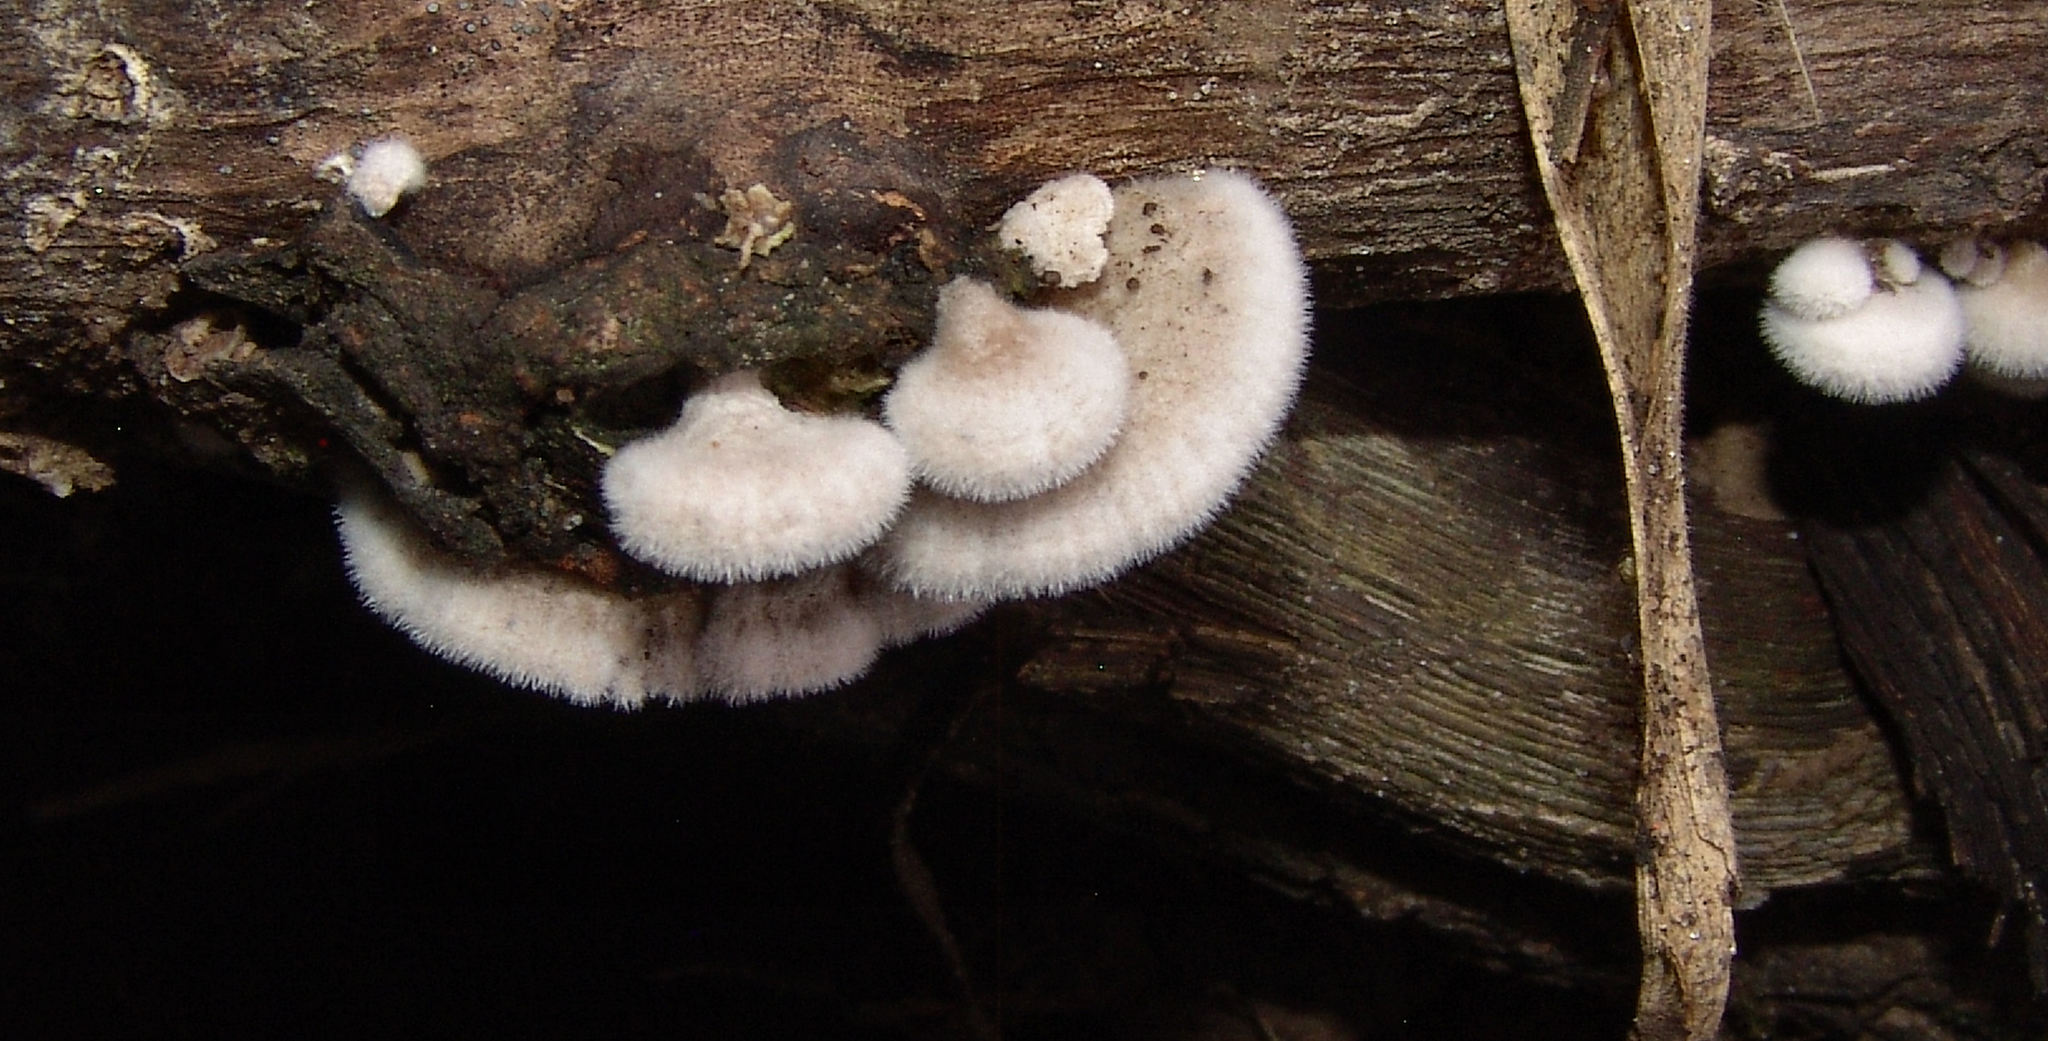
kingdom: Fungi
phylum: Basidiomycota
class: Agaricomycetes
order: Agaricales
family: Schizophyllaceae
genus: Schizophyllum
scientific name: Schizophyllum commune
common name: Common porecrust
